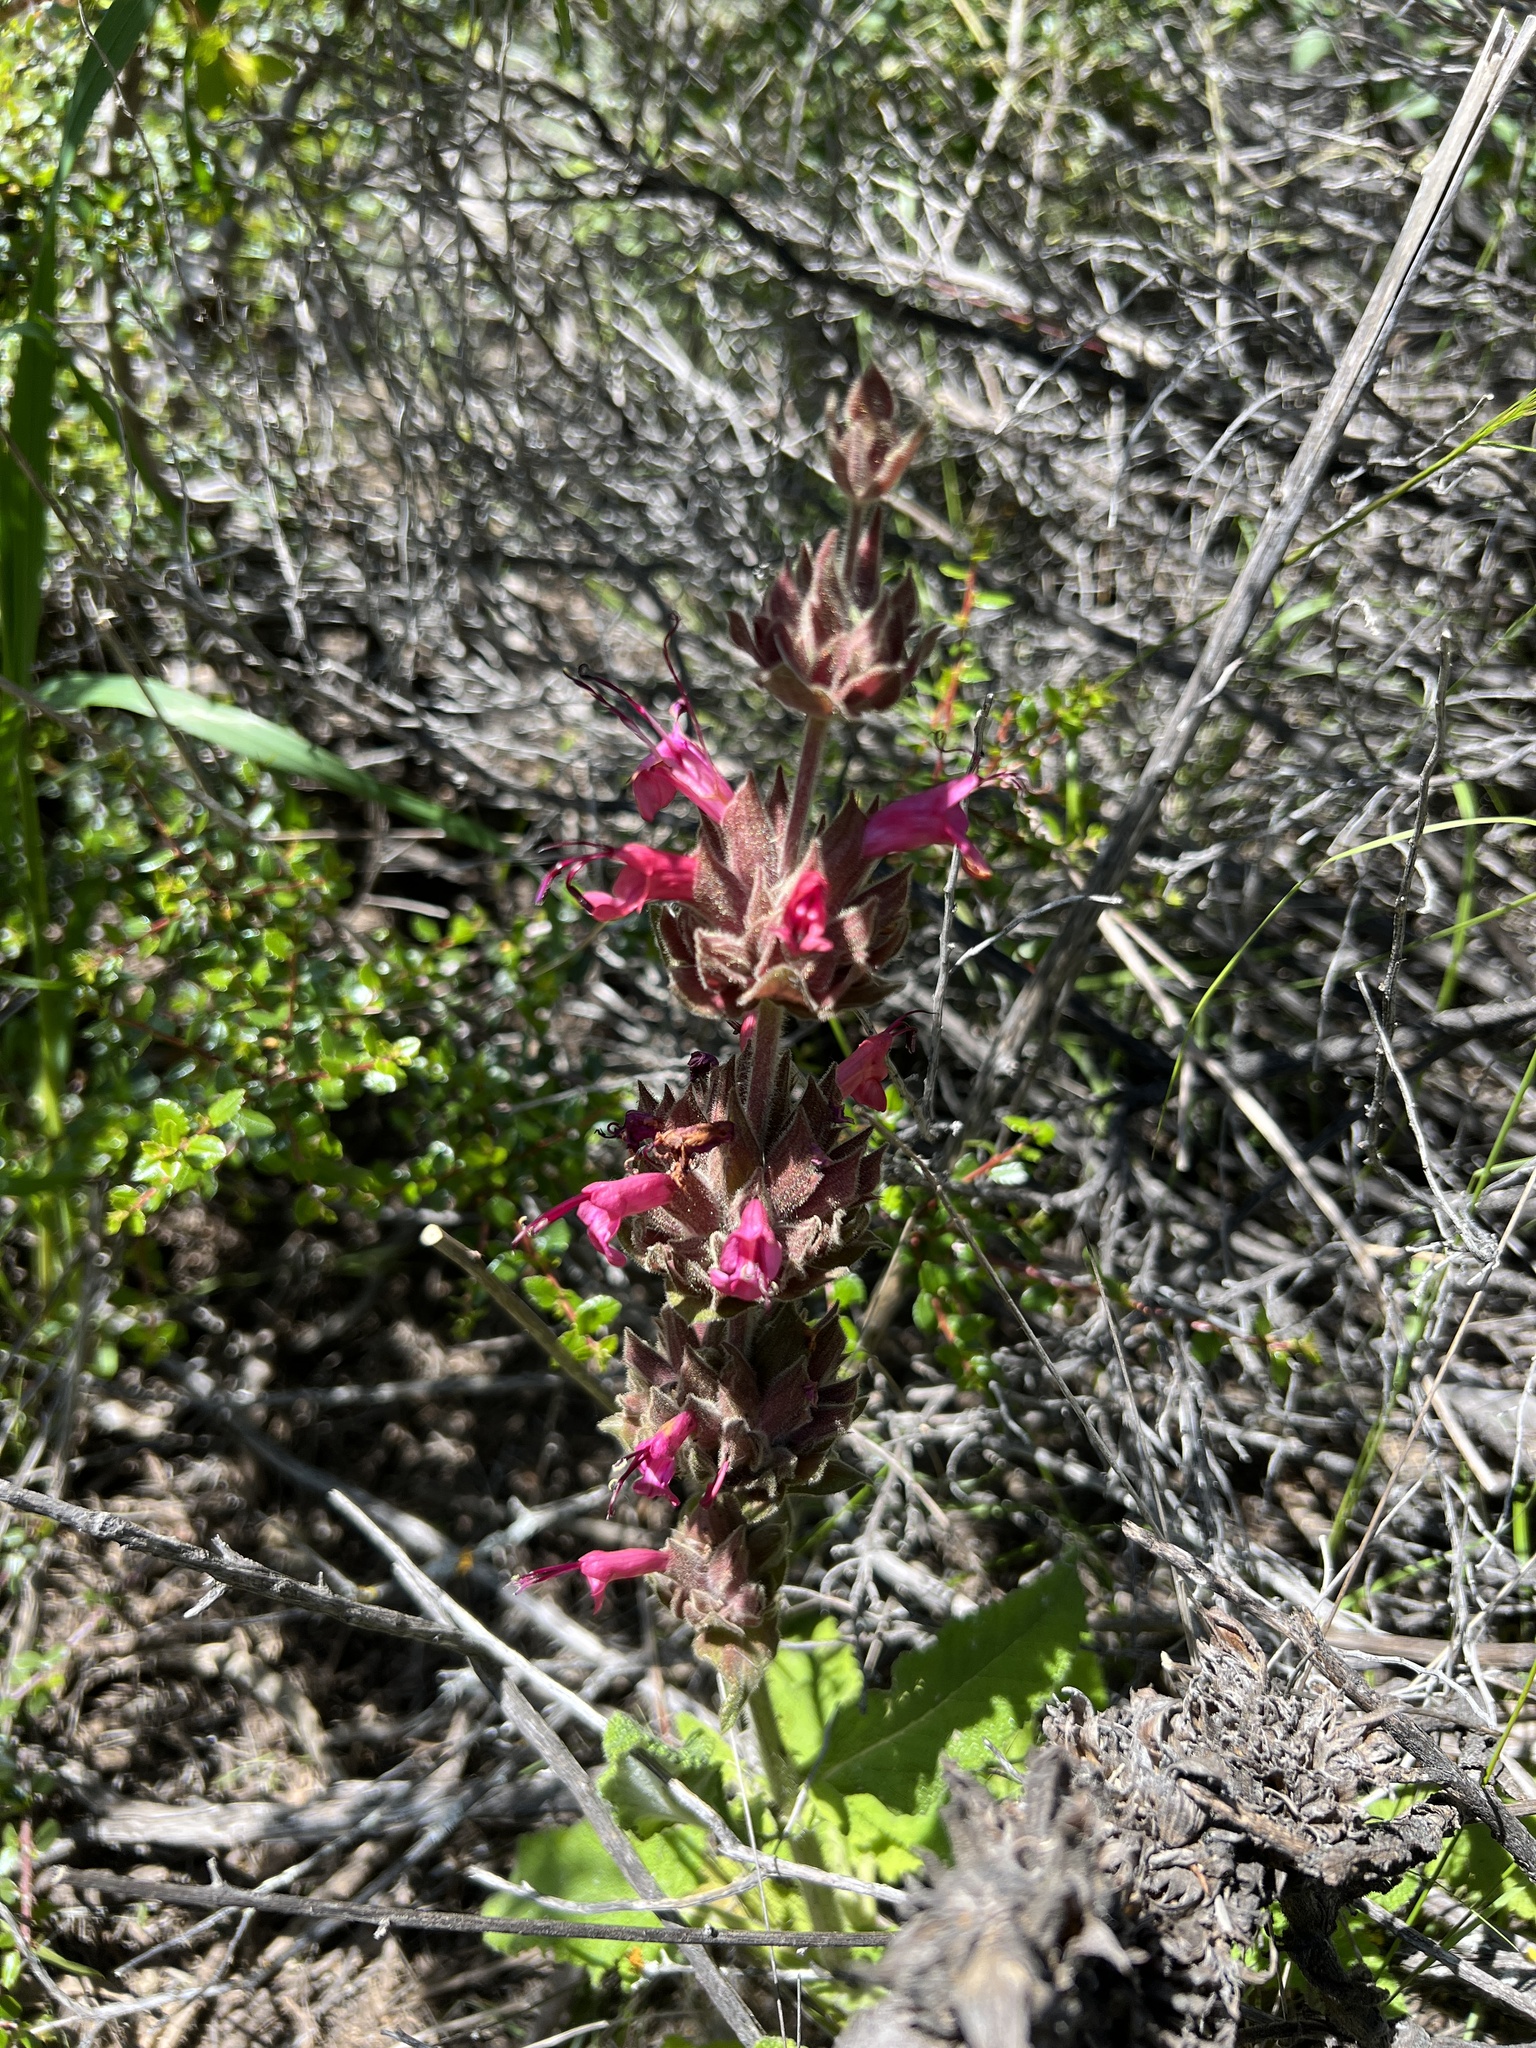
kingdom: Plantae
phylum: Tracheophyta
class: Magnoliopsida
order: Lamiales
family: Lamiaceae
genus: Salvia
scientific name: Salvia spathacea
